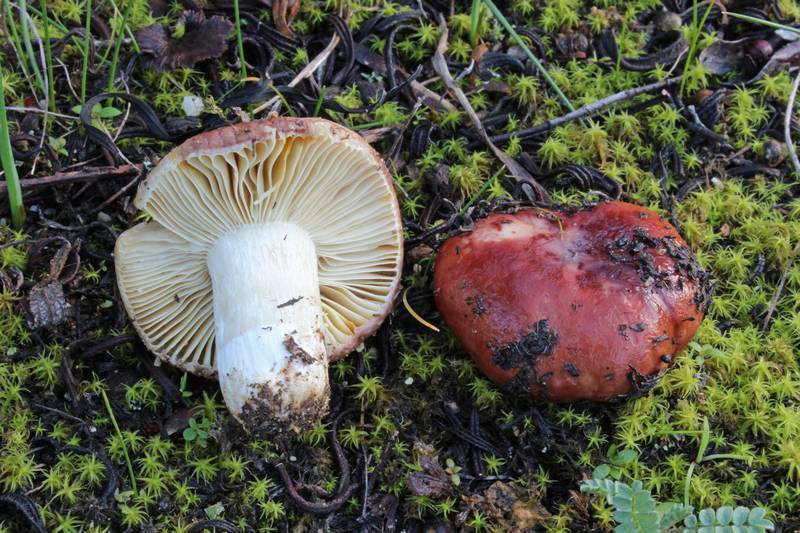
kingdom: Fungi
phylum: Basidiomycota
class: Agaricomycetes
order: Russulales
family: Russulaceae
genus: Russula
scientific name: Russula tyrrhenica
